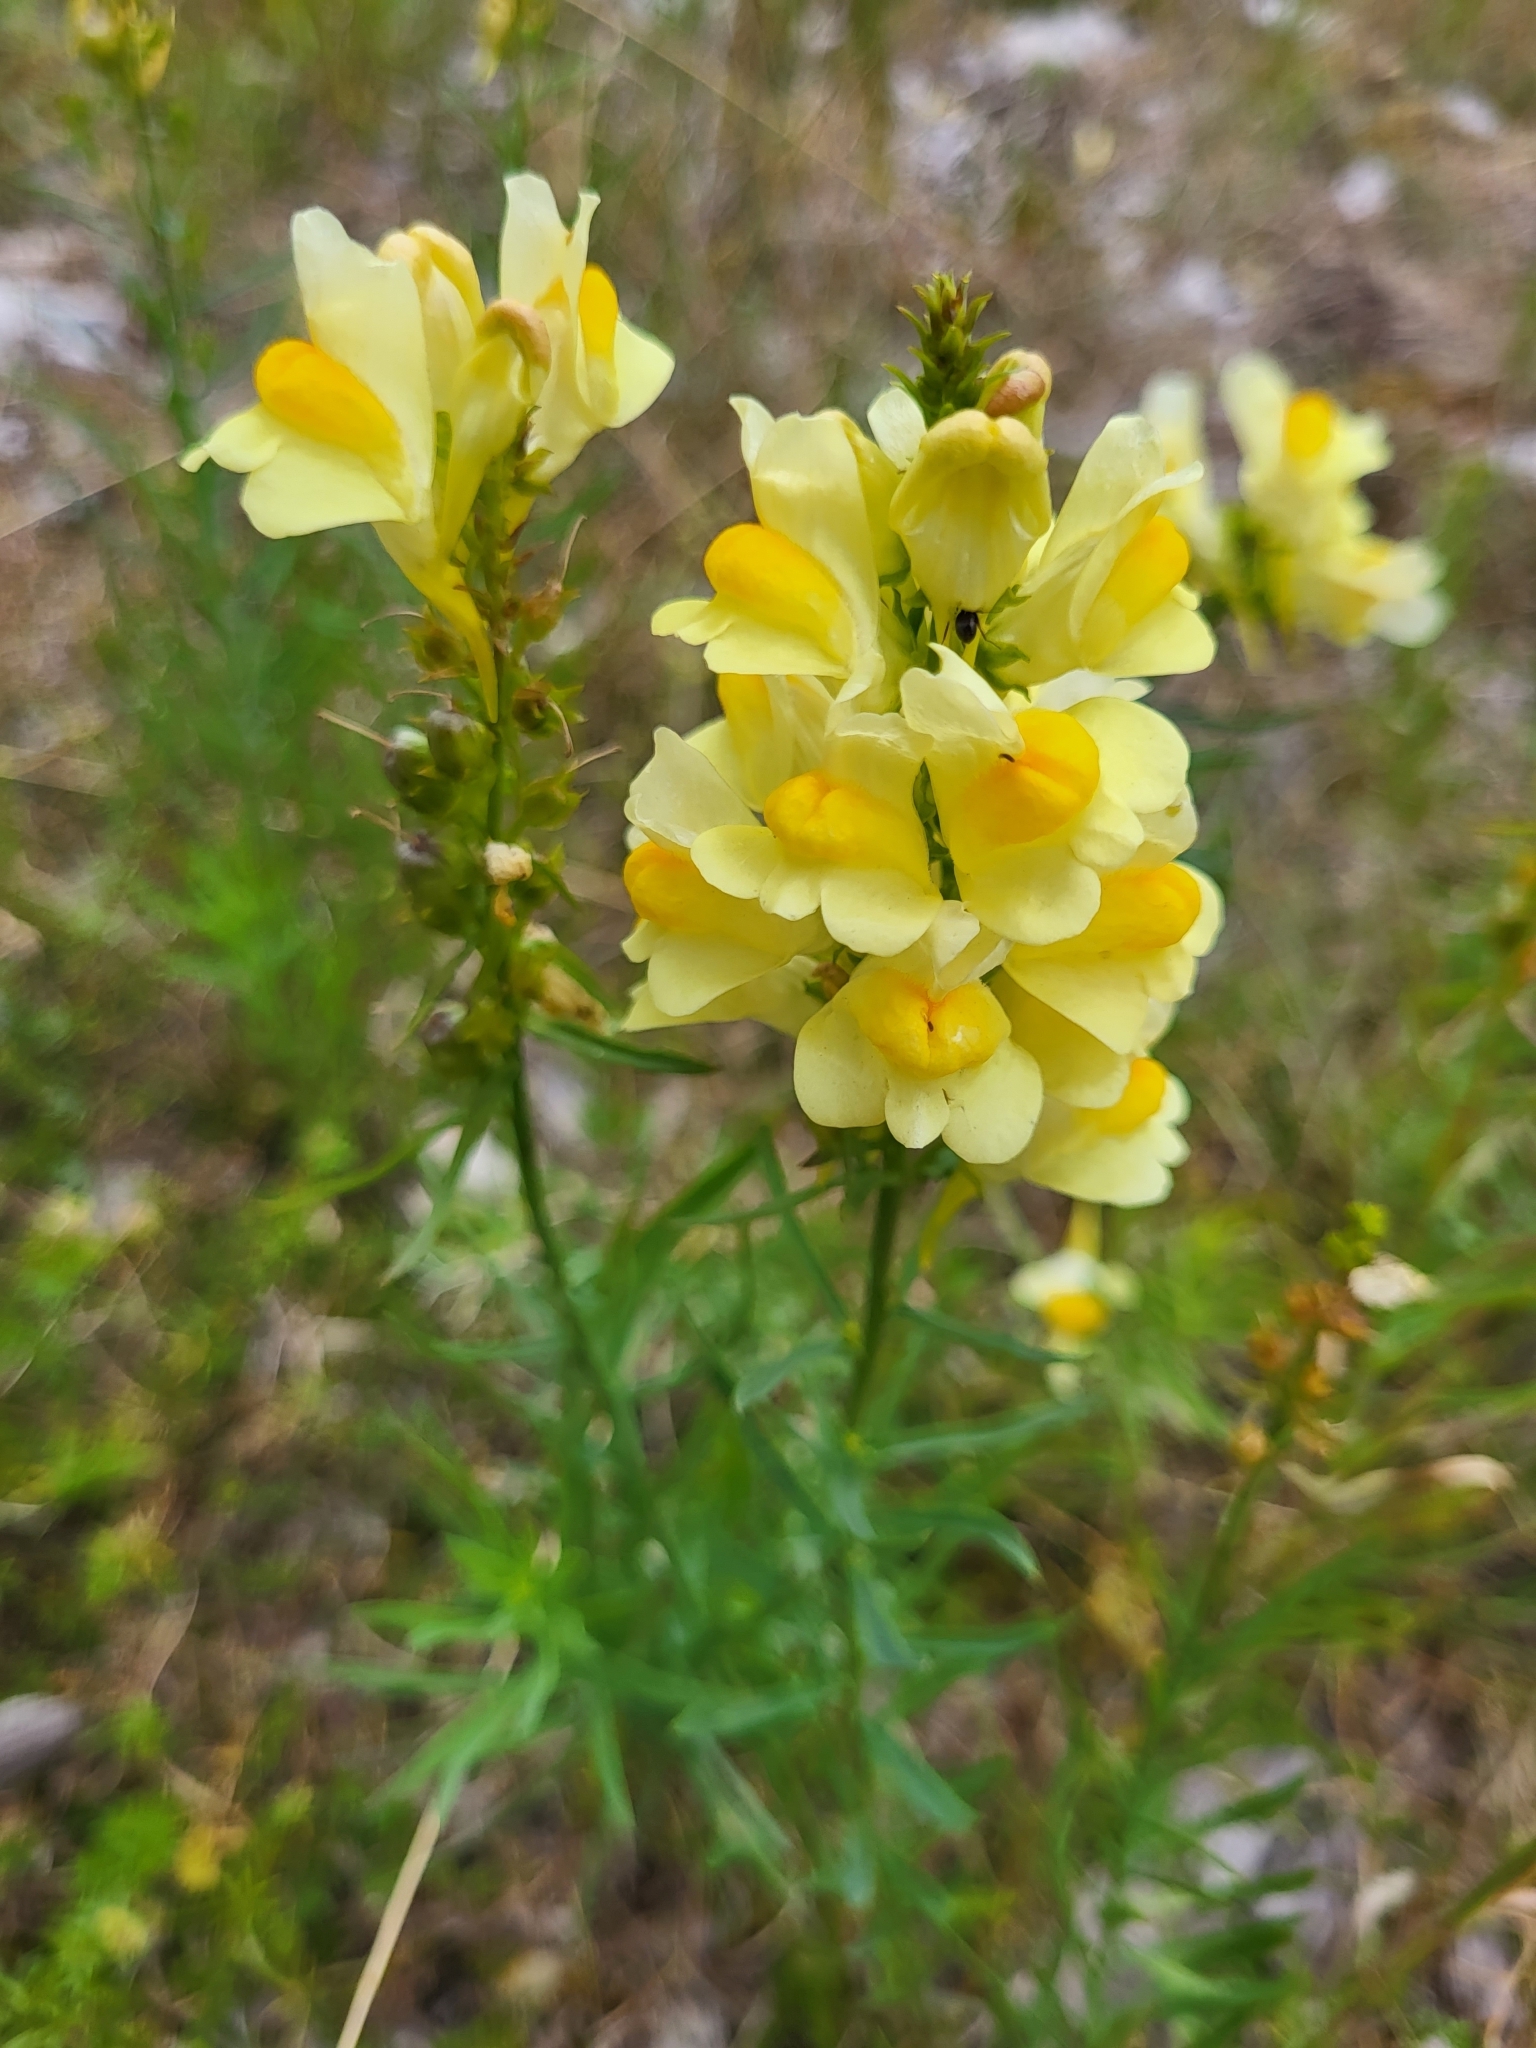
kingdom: Plantae
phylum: Tracheophyta
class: Magnoliopsida
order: Lamiales
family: Plantaginaceae
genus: Linaria
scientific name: Linaria vulgaris
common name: Butter and eggs
